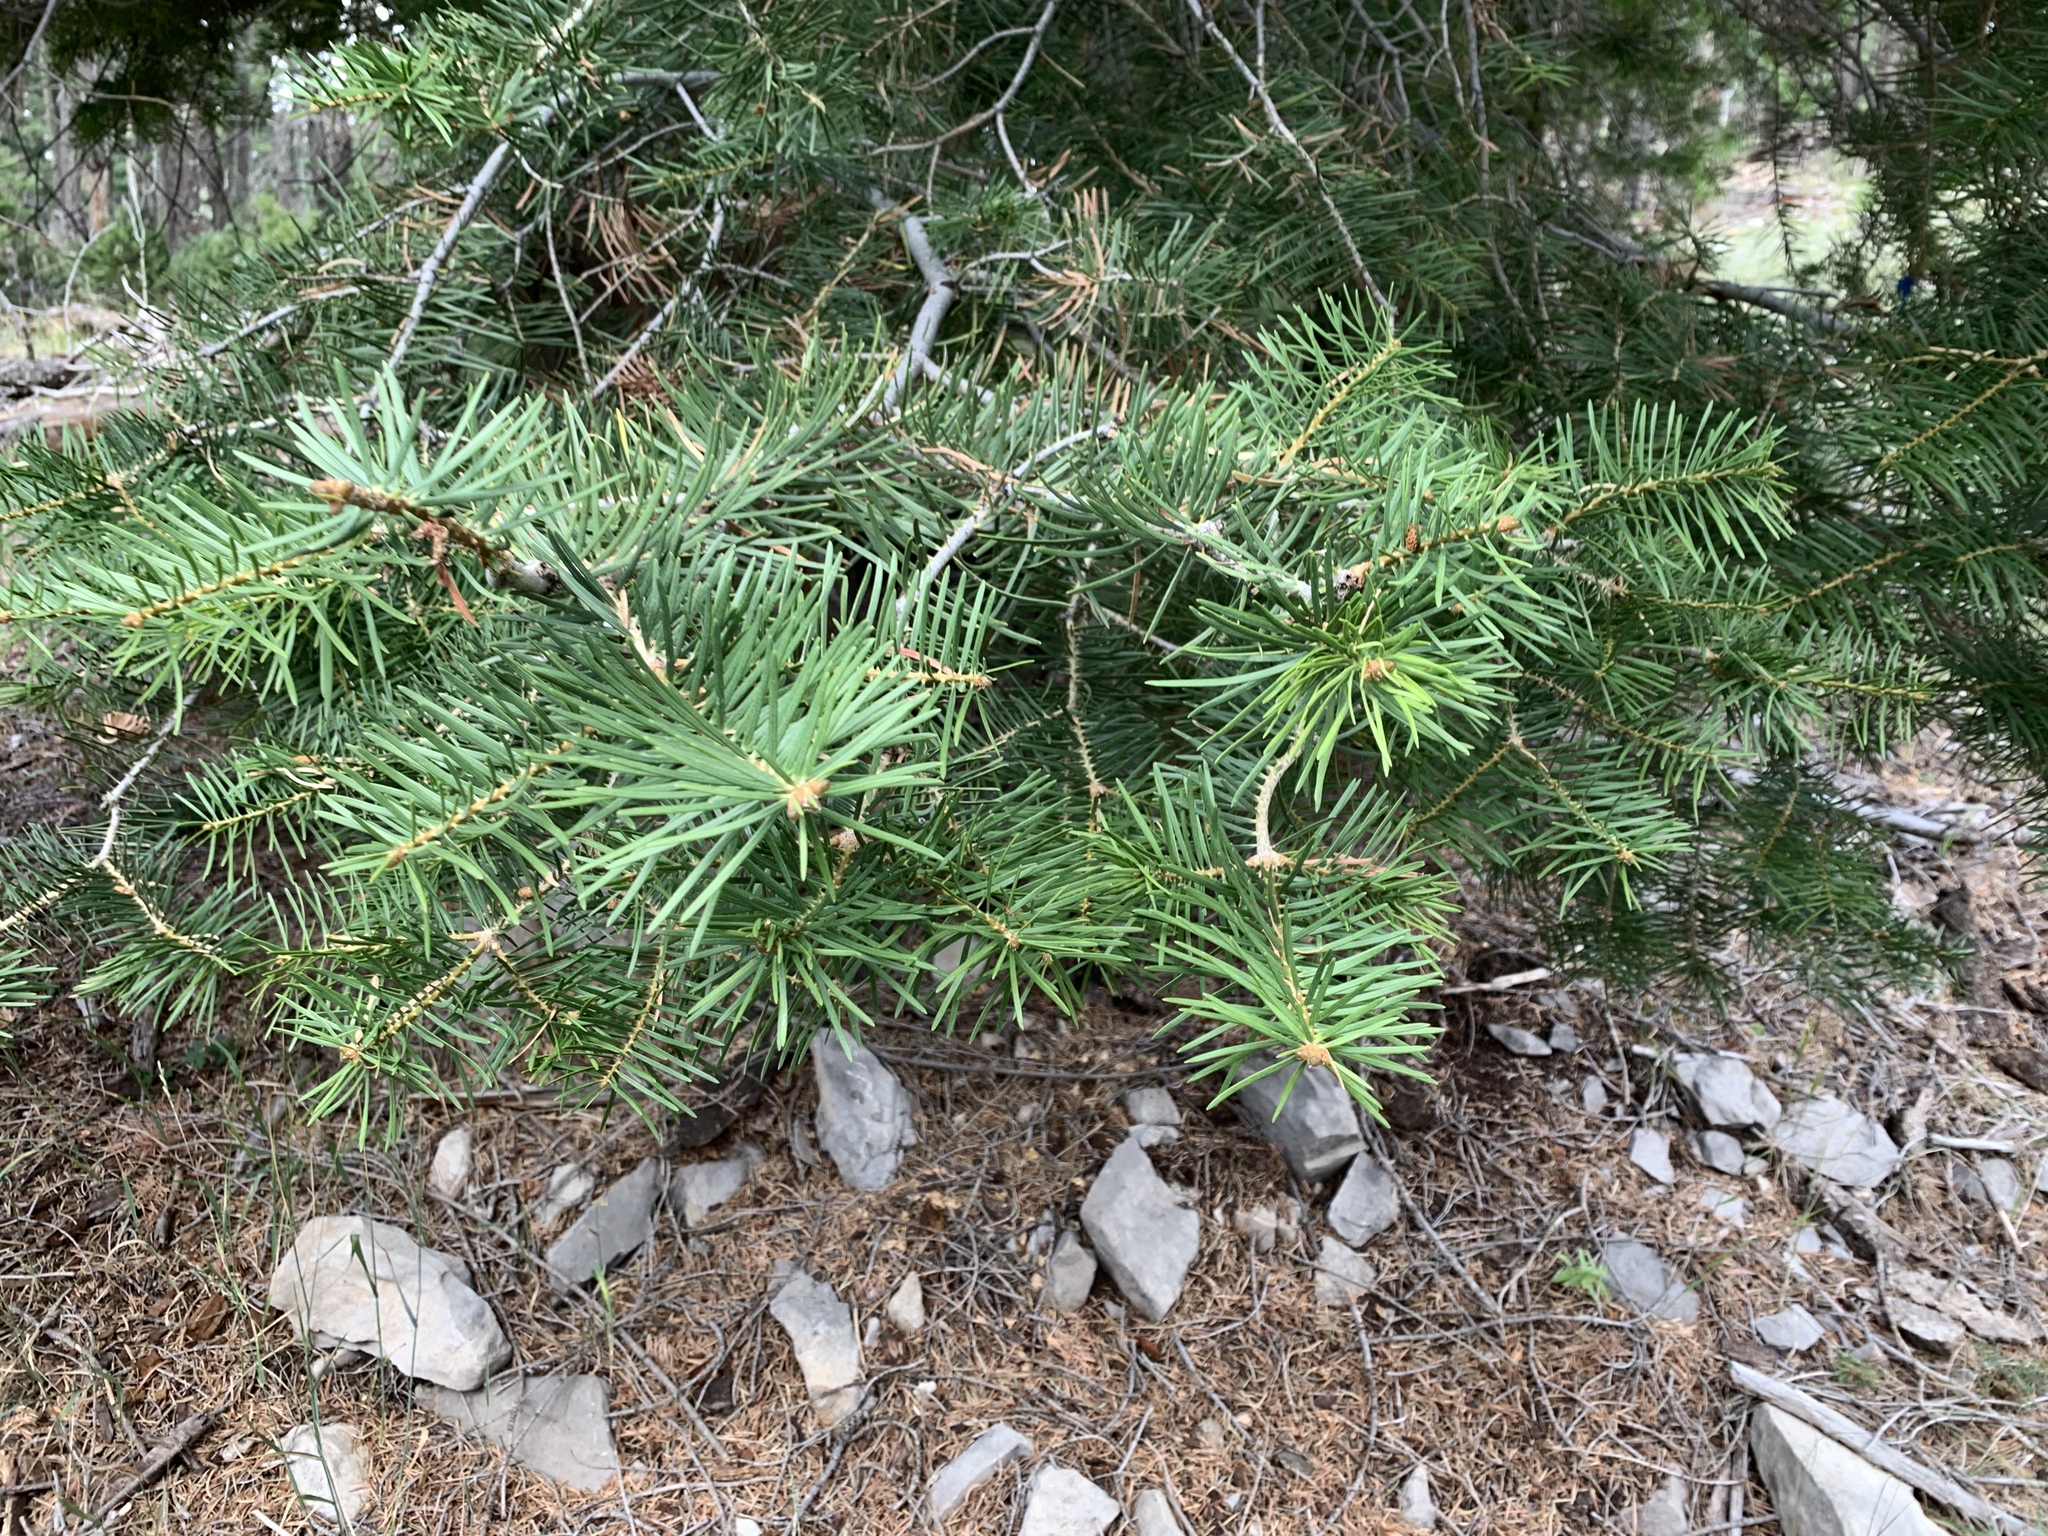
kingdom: Plantae
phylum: Tracheophyta
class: Pinopsida
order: Pinales
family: Pinaceae
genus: Abies
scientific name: Abies concolor
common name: Colorado fir
